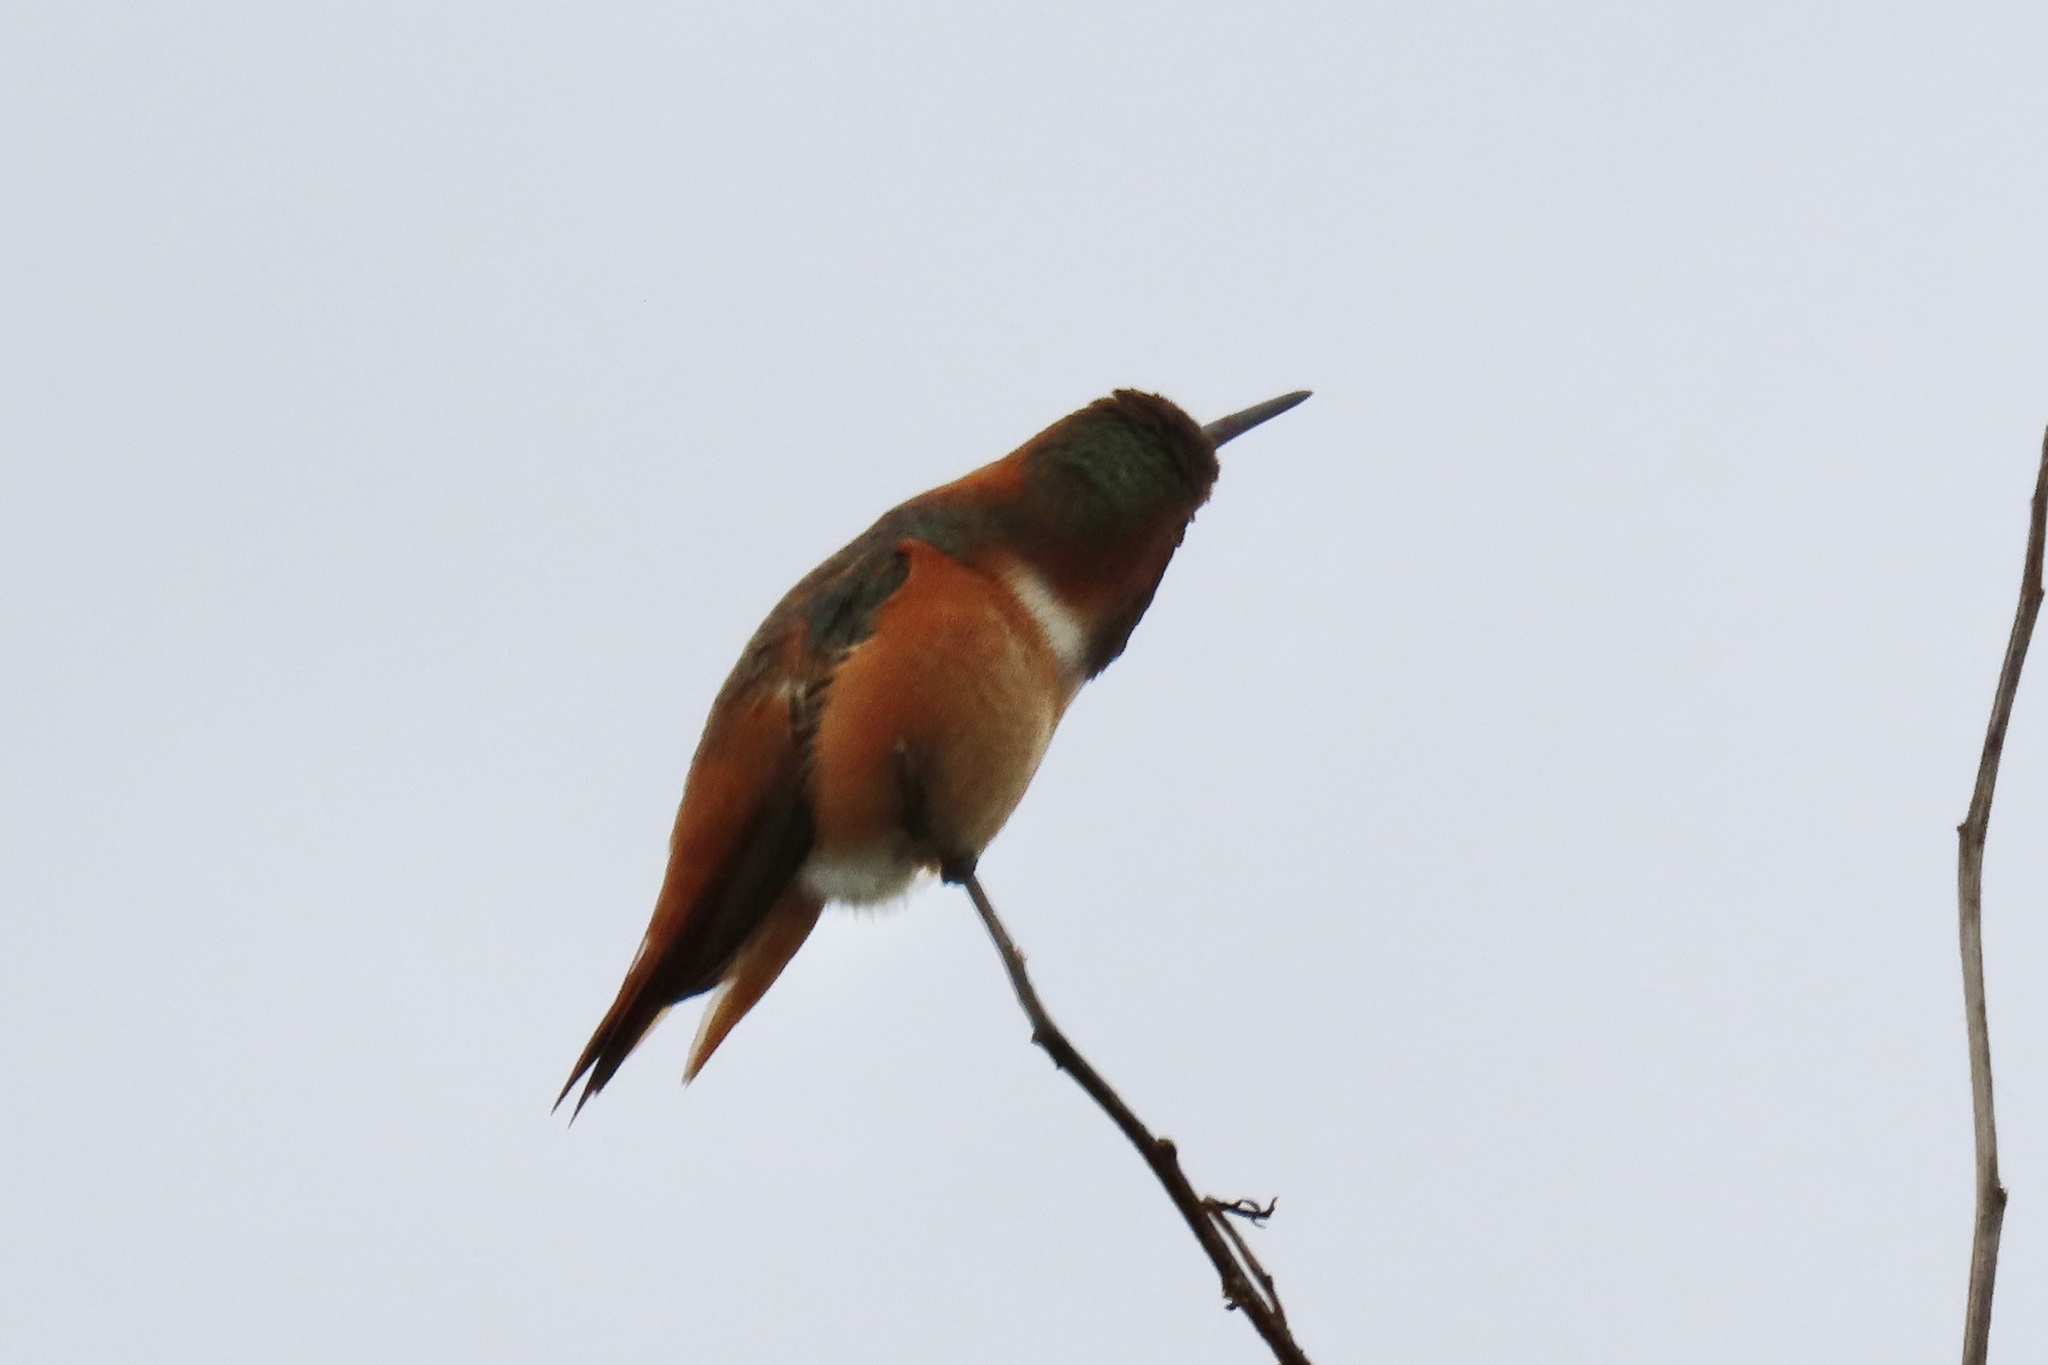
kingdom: Animalia
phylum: Chordata
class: Aves
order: Apodiformes
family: Trochilidae
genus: Selasphorus
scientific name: Selasphorus sasin
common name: Allen's hummingbird
